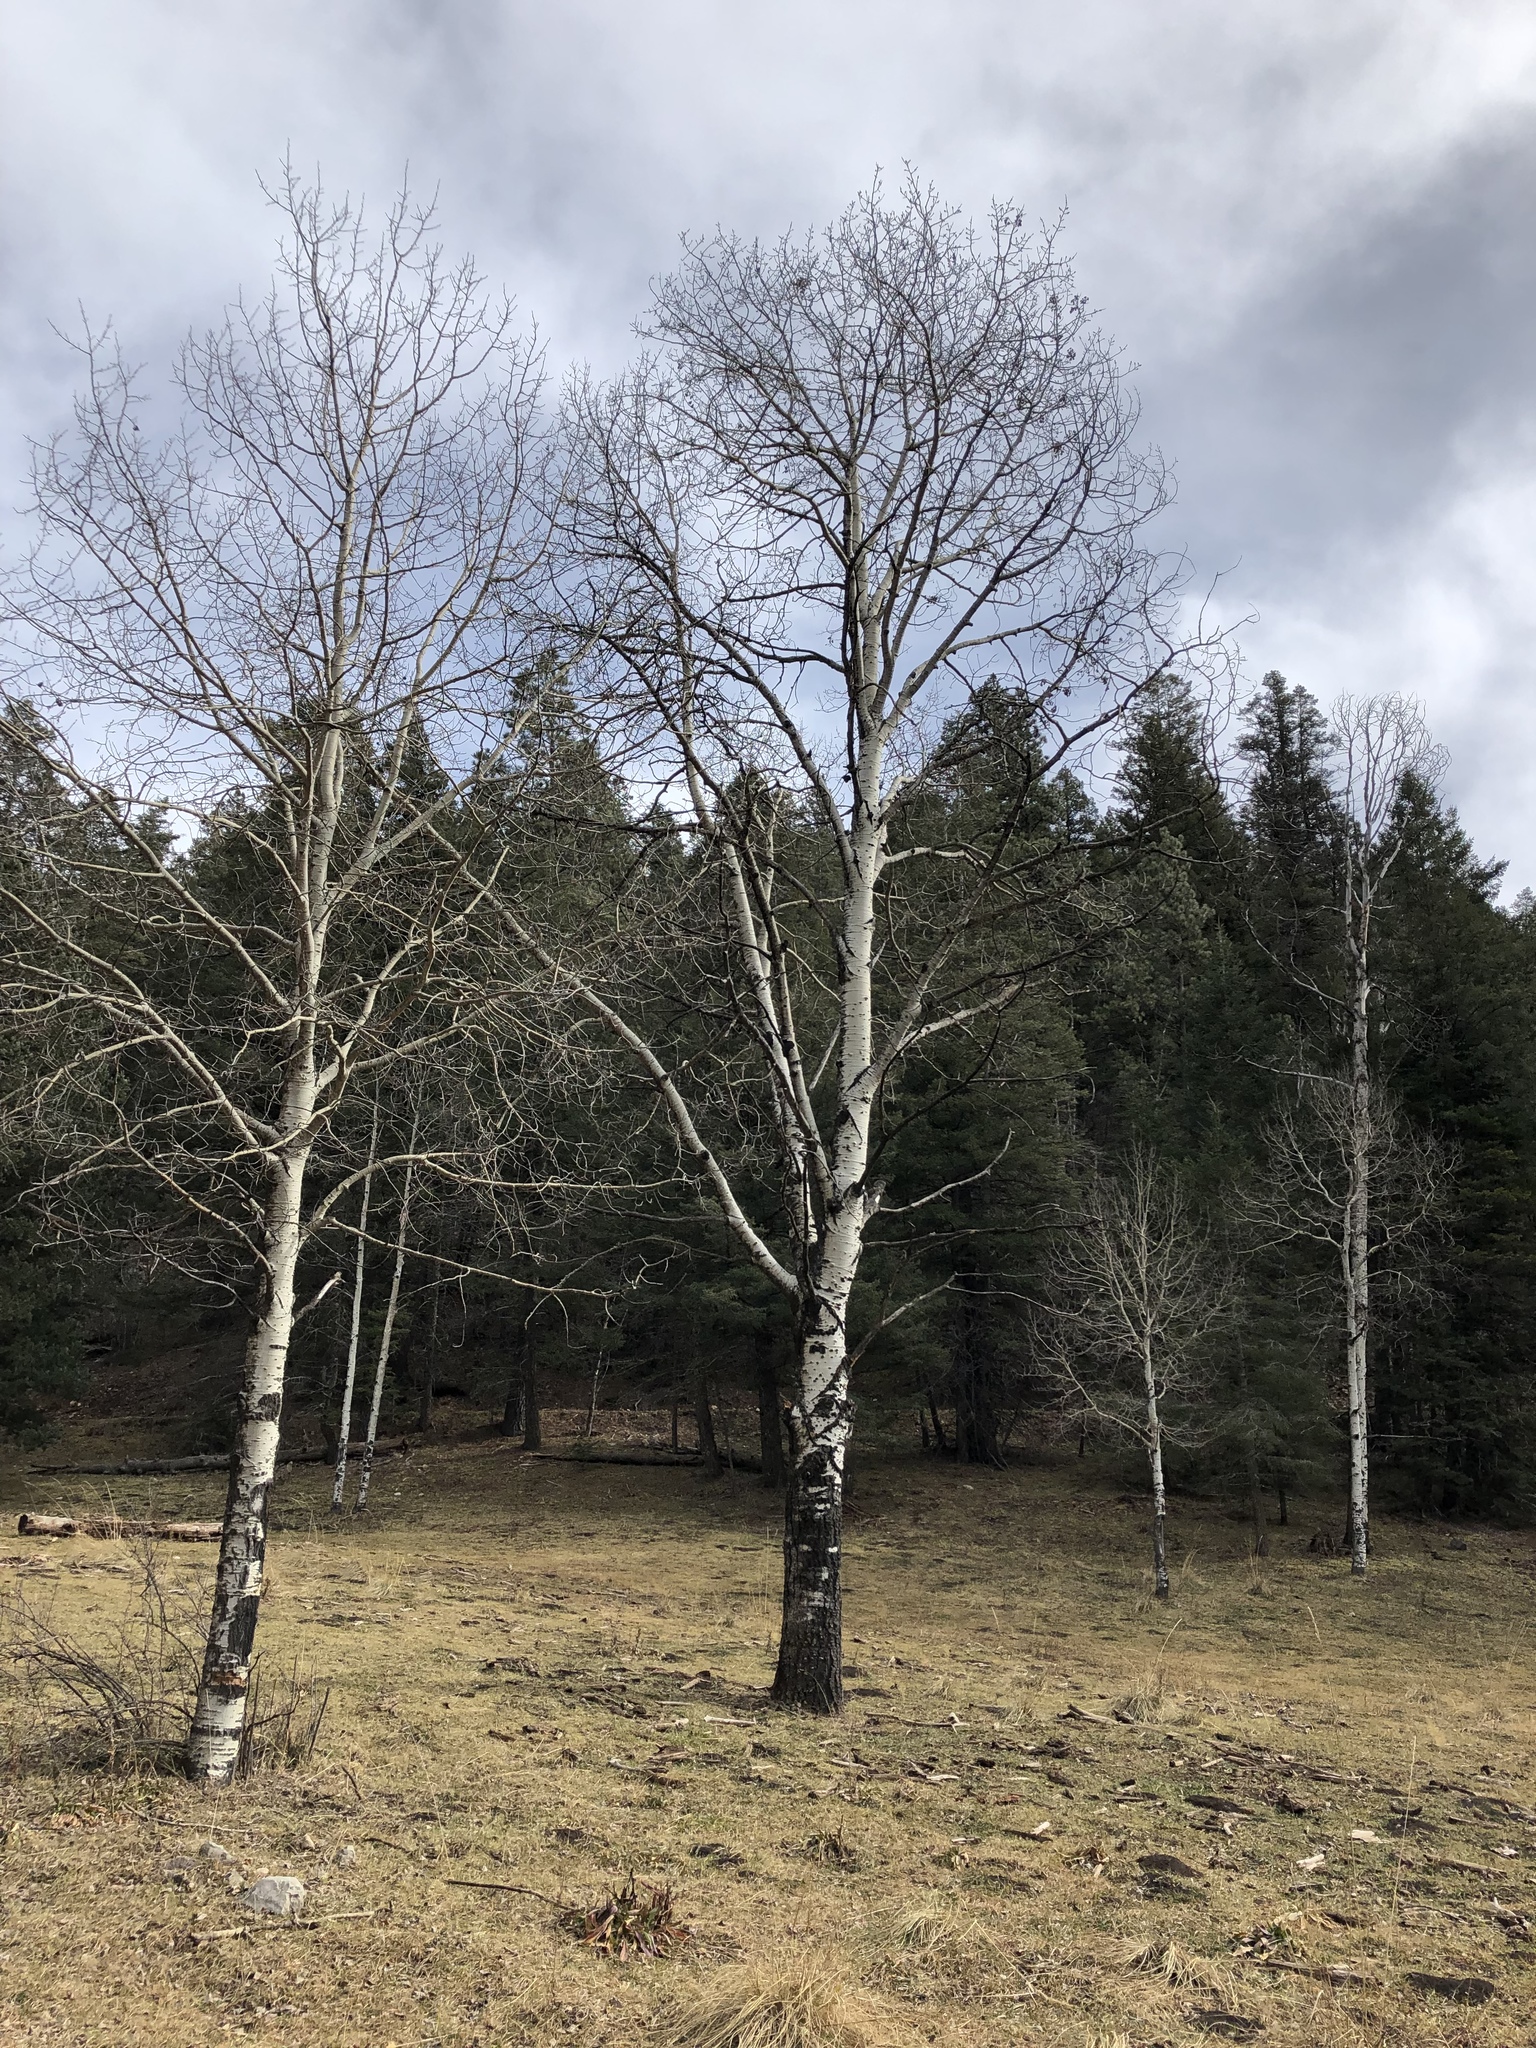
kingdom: Plantae
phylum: Tracheophyta
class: Magnoliopsida
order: Malpighiales
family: Salicaceae
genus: Populus
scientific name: Populus tremuloides
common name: Quaking aspen
